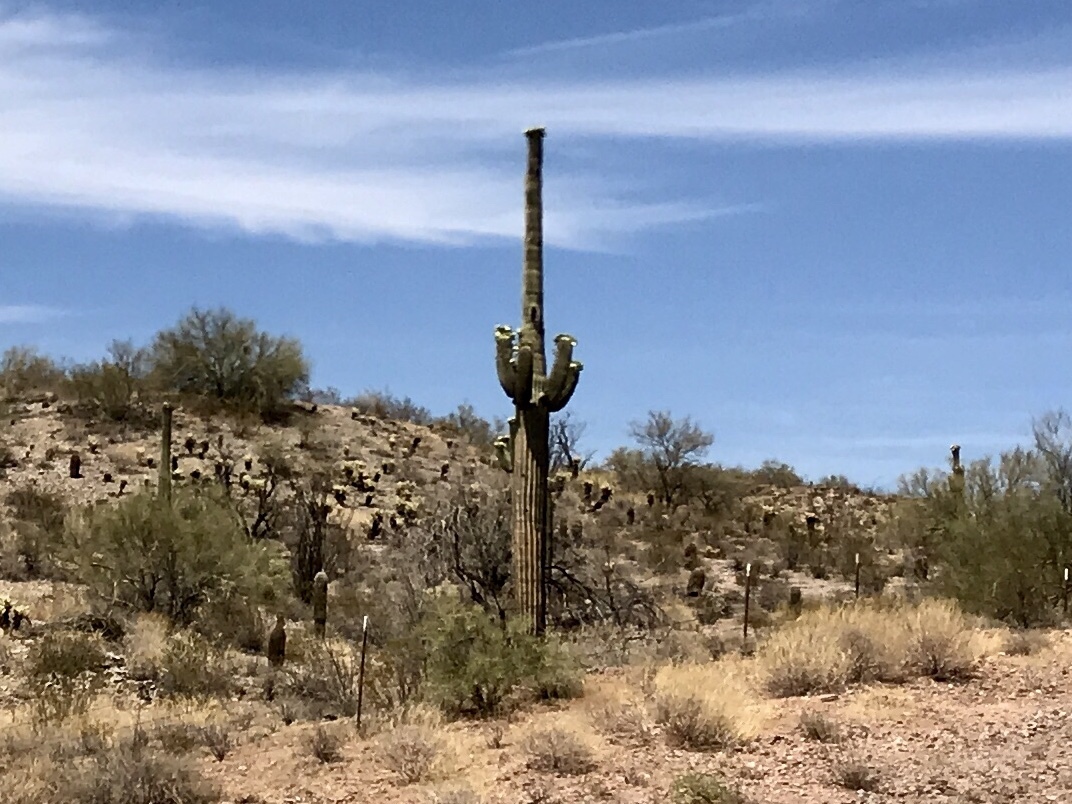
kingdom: Plantae
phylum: Tracheophyta
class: Magnoliopsida
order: Caryophyllales
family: Cactaceae
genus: Carnegiea
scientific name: Carnegiea gigantea
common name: Saguaro
